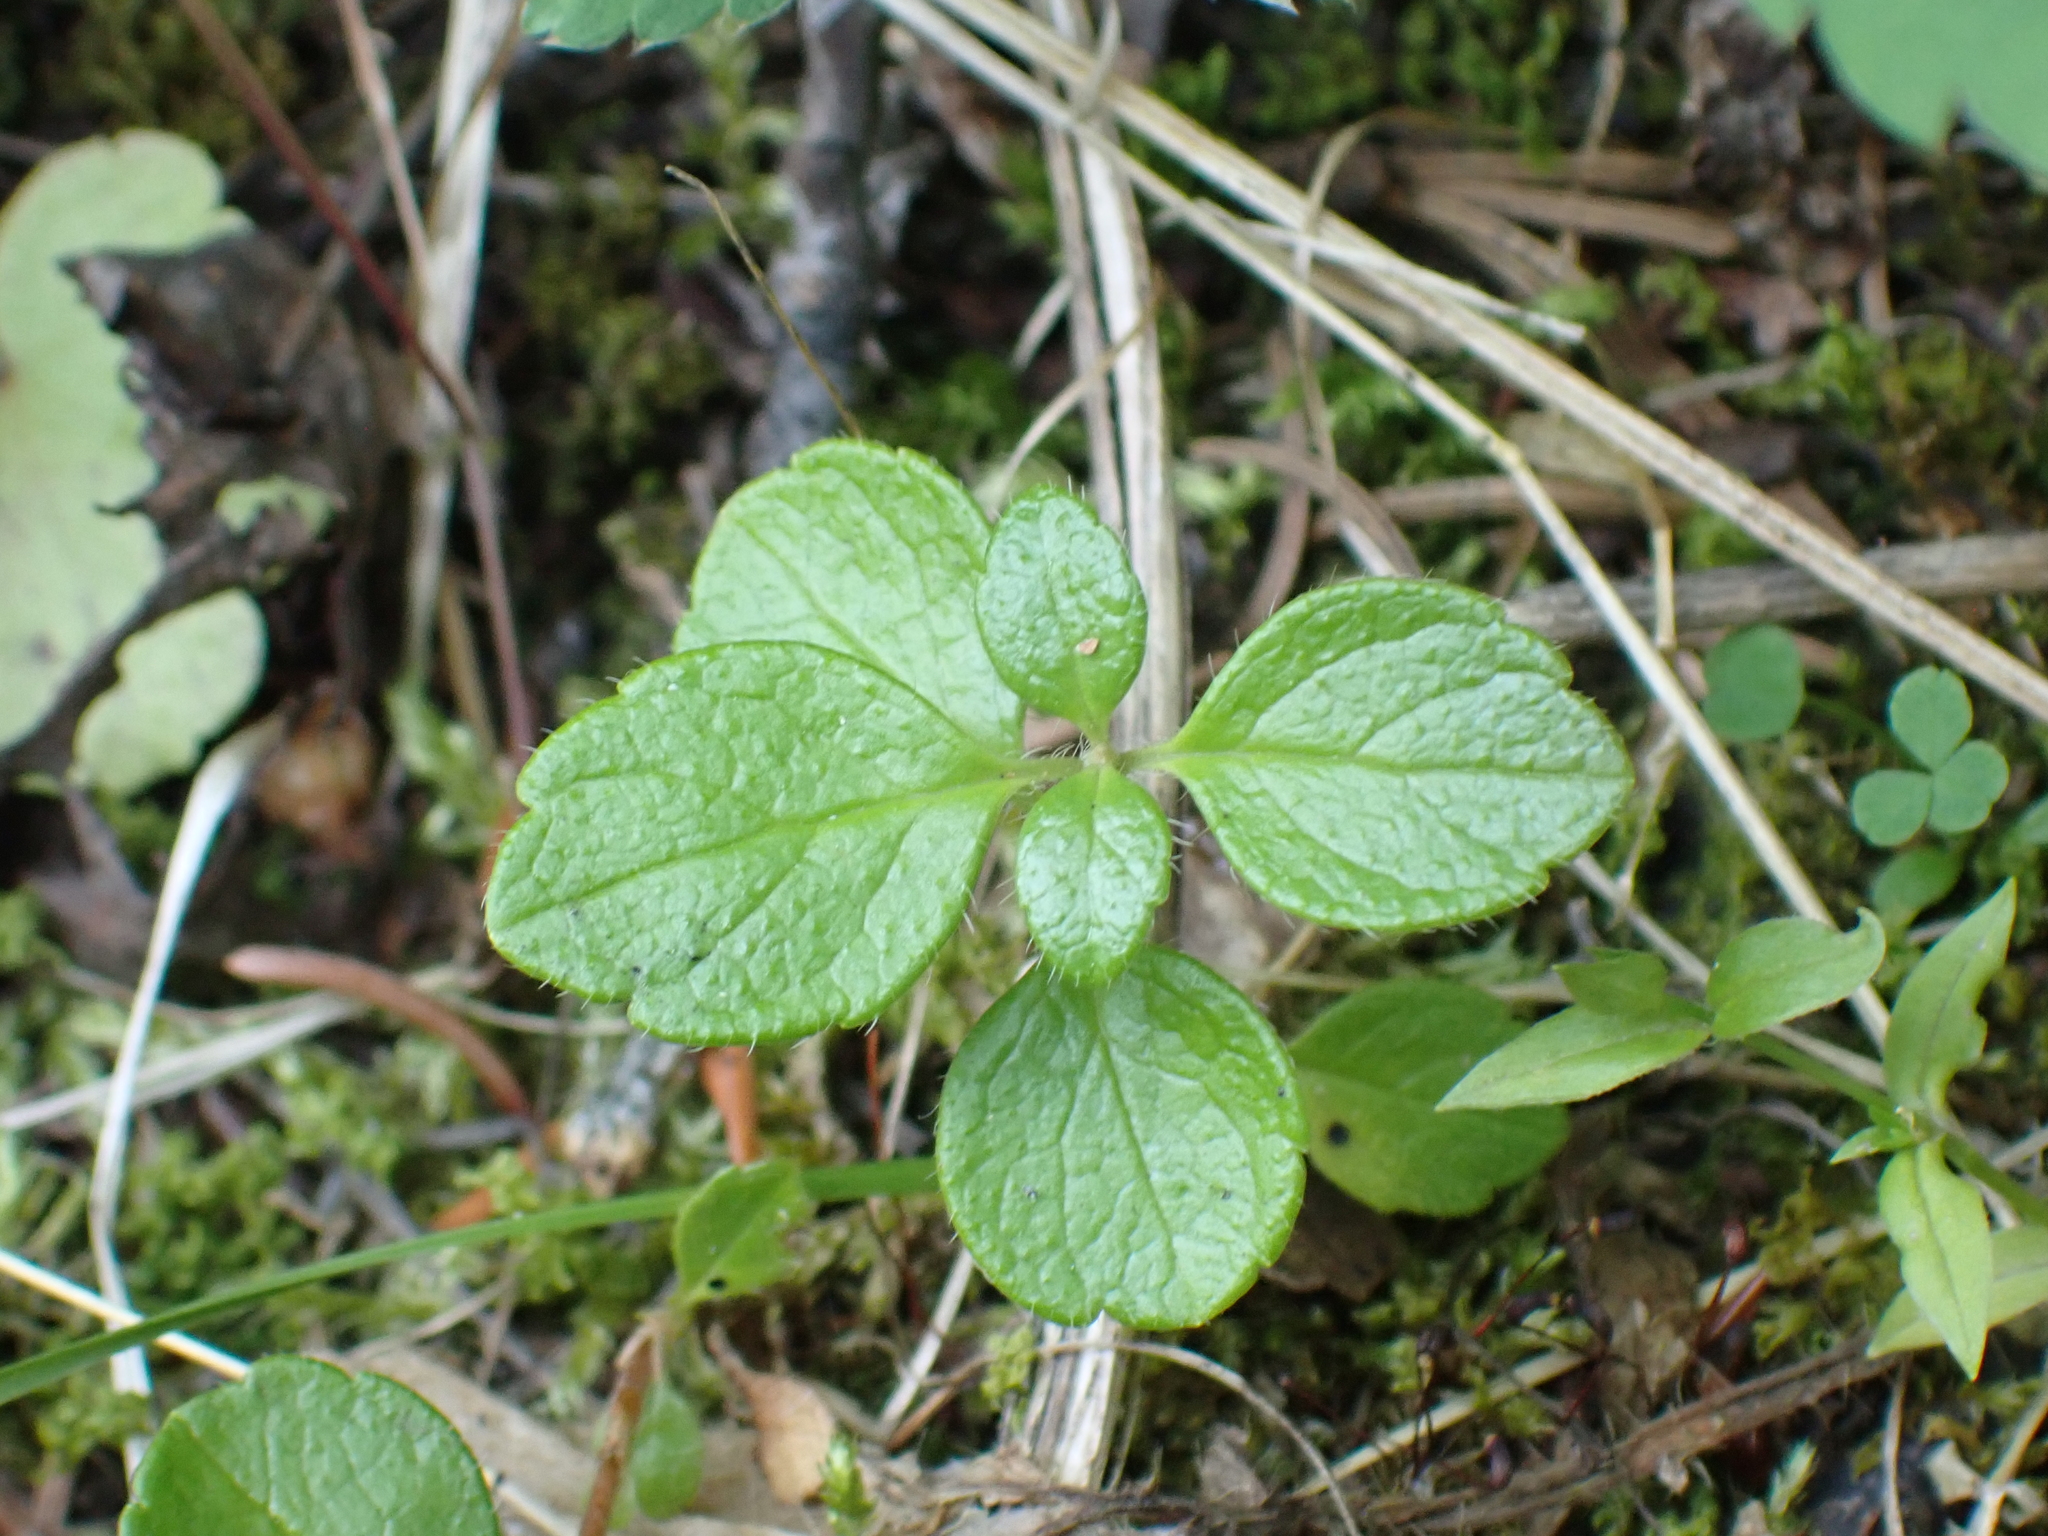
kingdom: Plantae
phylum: Tracheophyta
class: Magnoliopsida
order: Dipsacales
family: Caprifoliaceae
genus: Linnaea
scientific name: Linnaea borealis
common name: Twinflower
